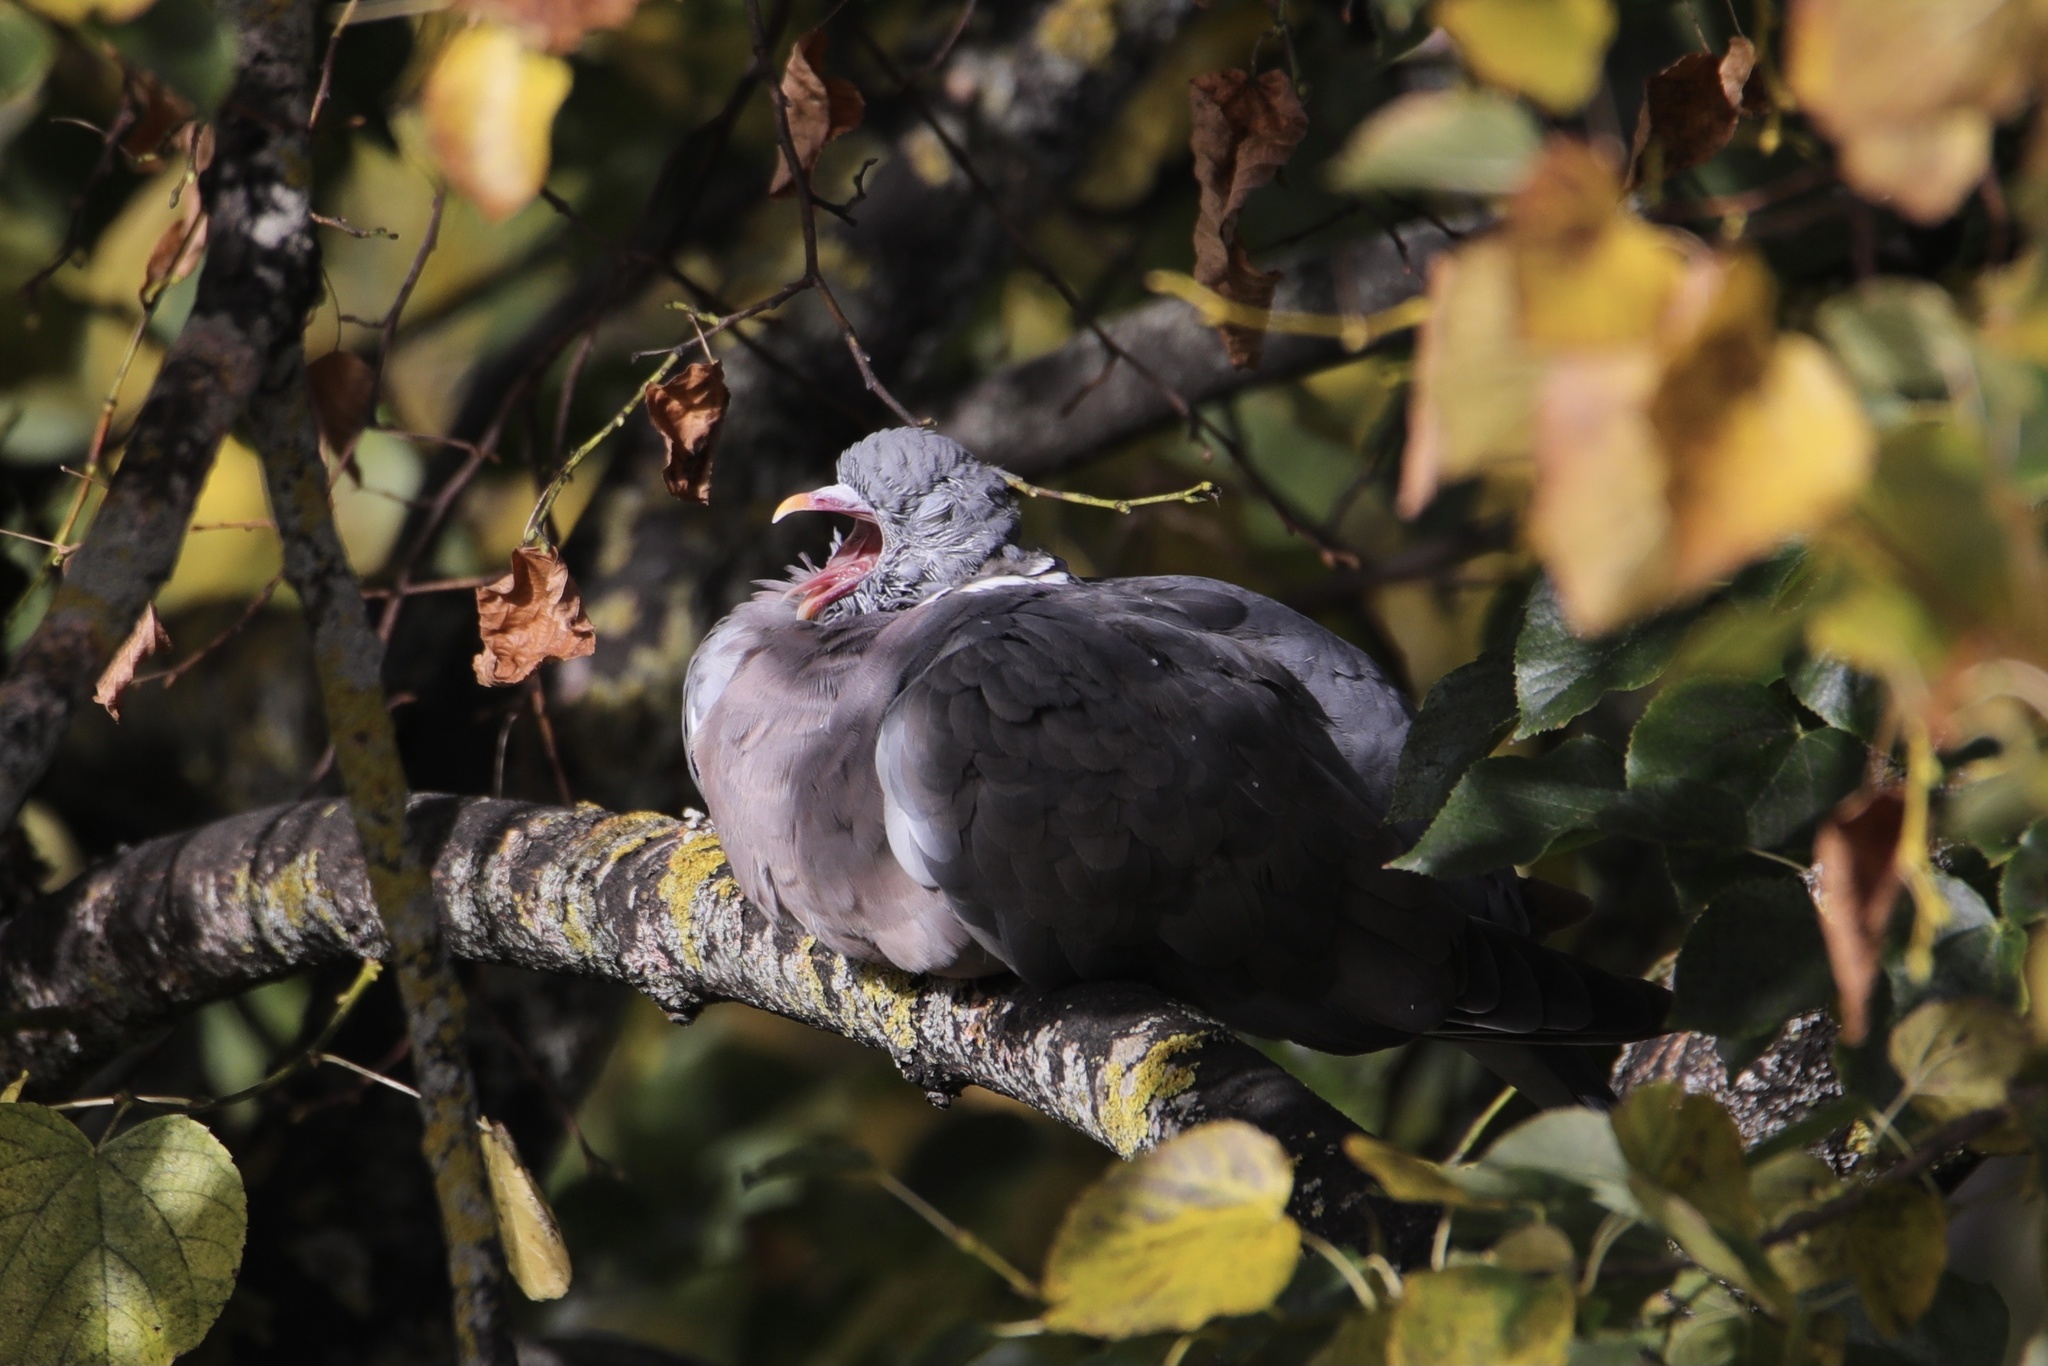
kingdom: Animalia
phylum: Chordata
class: Aves
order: Columbiformes
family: Columbidae
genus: Columba
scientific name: Columba palumbus
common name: Common wood pigeon
